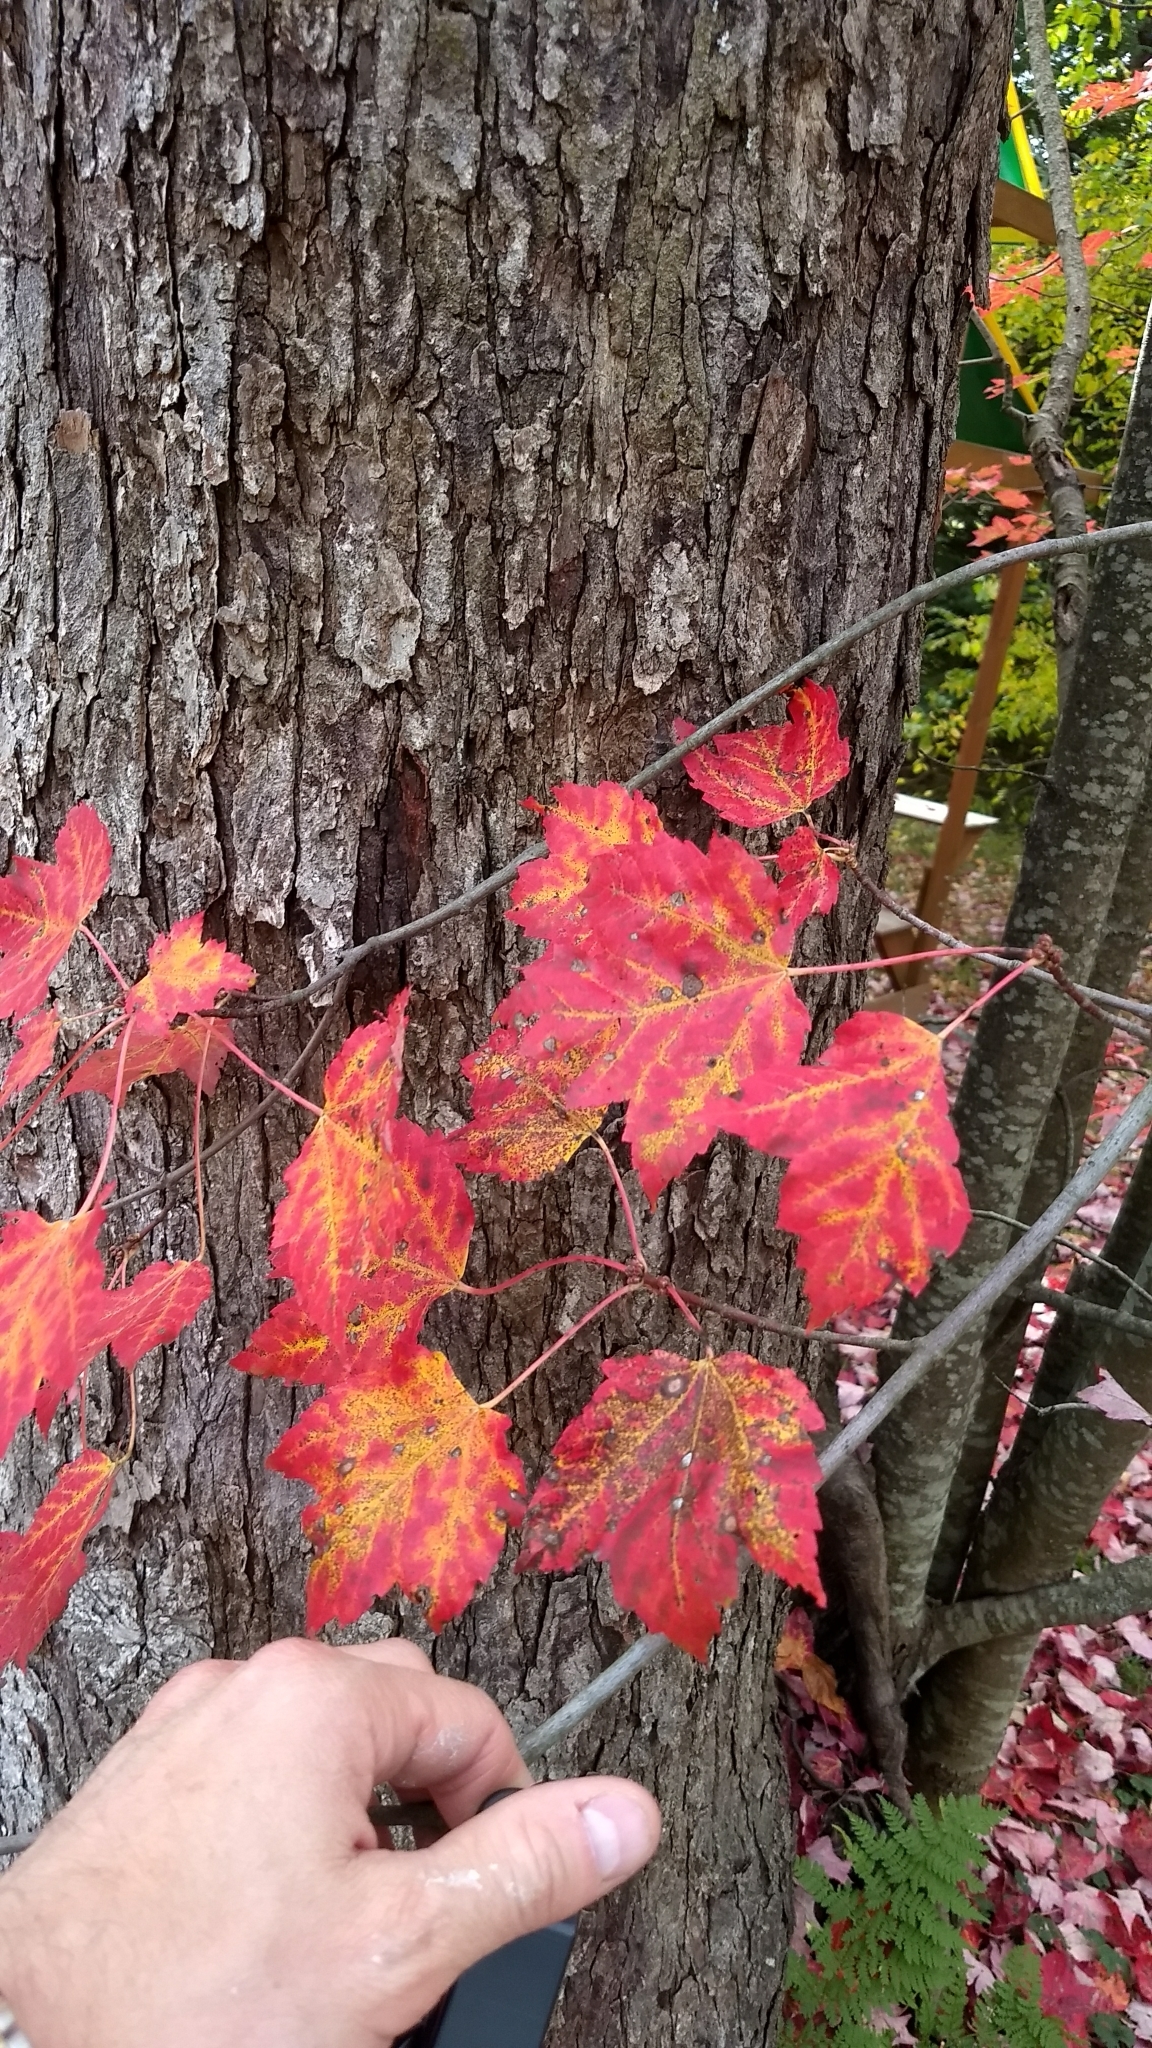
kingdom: Plantae
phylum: Tracheophyta
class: Magnoliopsida
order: Sapindales
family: Sapindaceae
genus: Acer
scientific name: Acer rubrum
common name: Red maple
